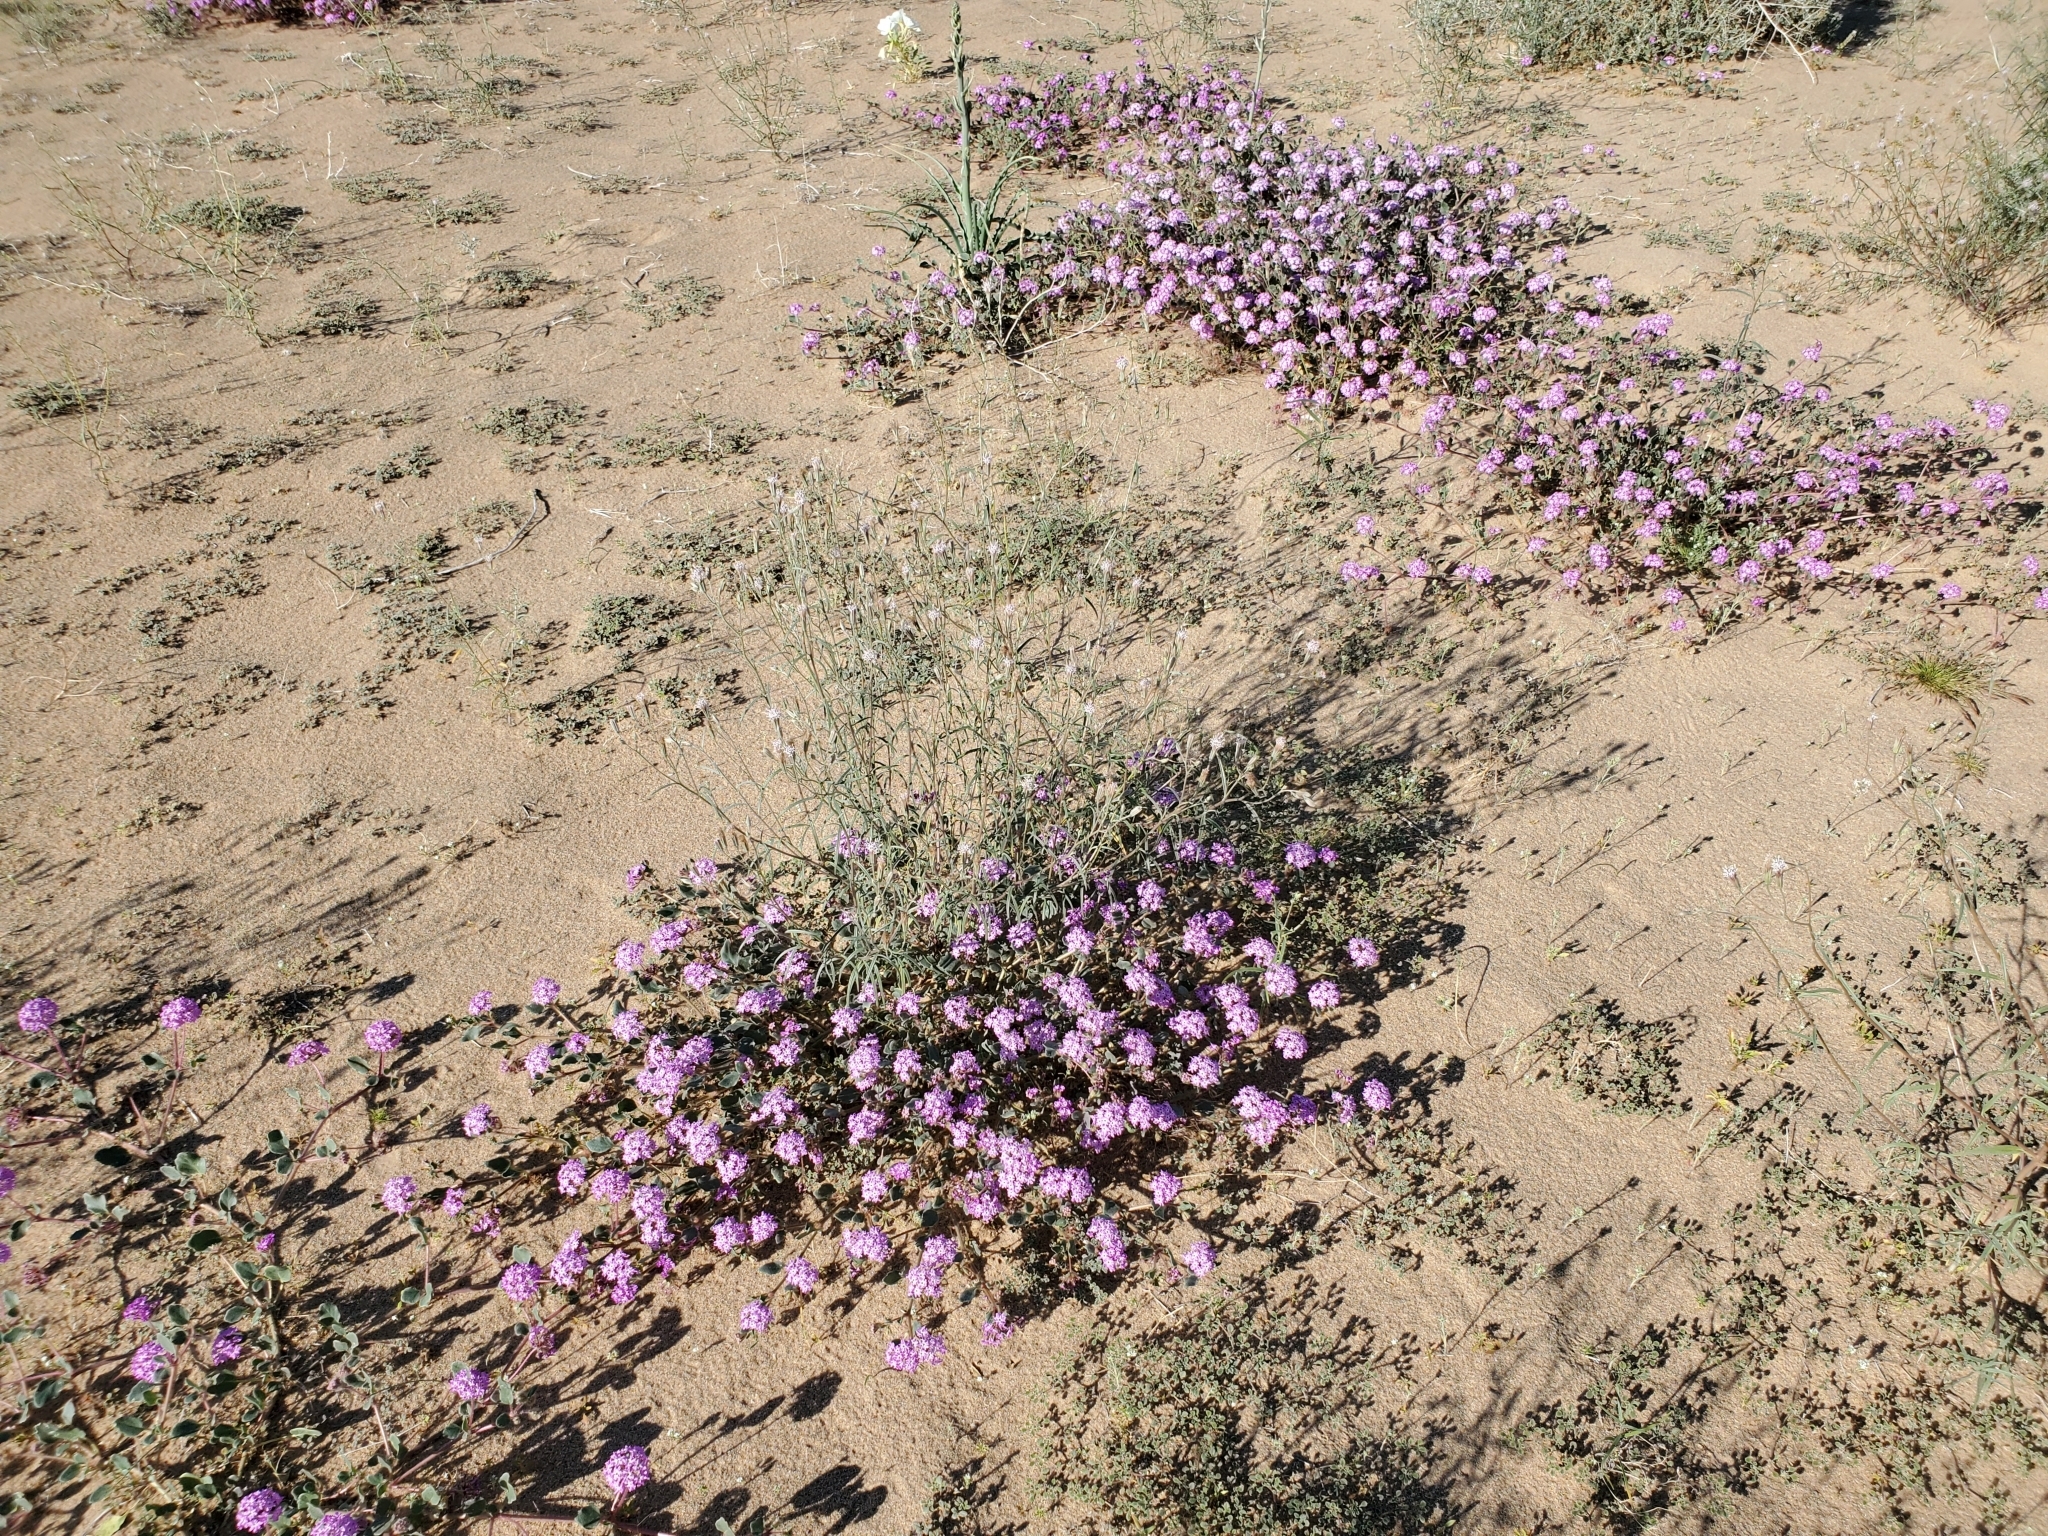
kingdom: Plantae
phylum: Tracheophyta
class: Magnoliopsida
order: Caryophyllales
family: Nyctaginaceae
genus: Abronia
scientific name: Abronia villosa
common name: Desert sand-verbena
